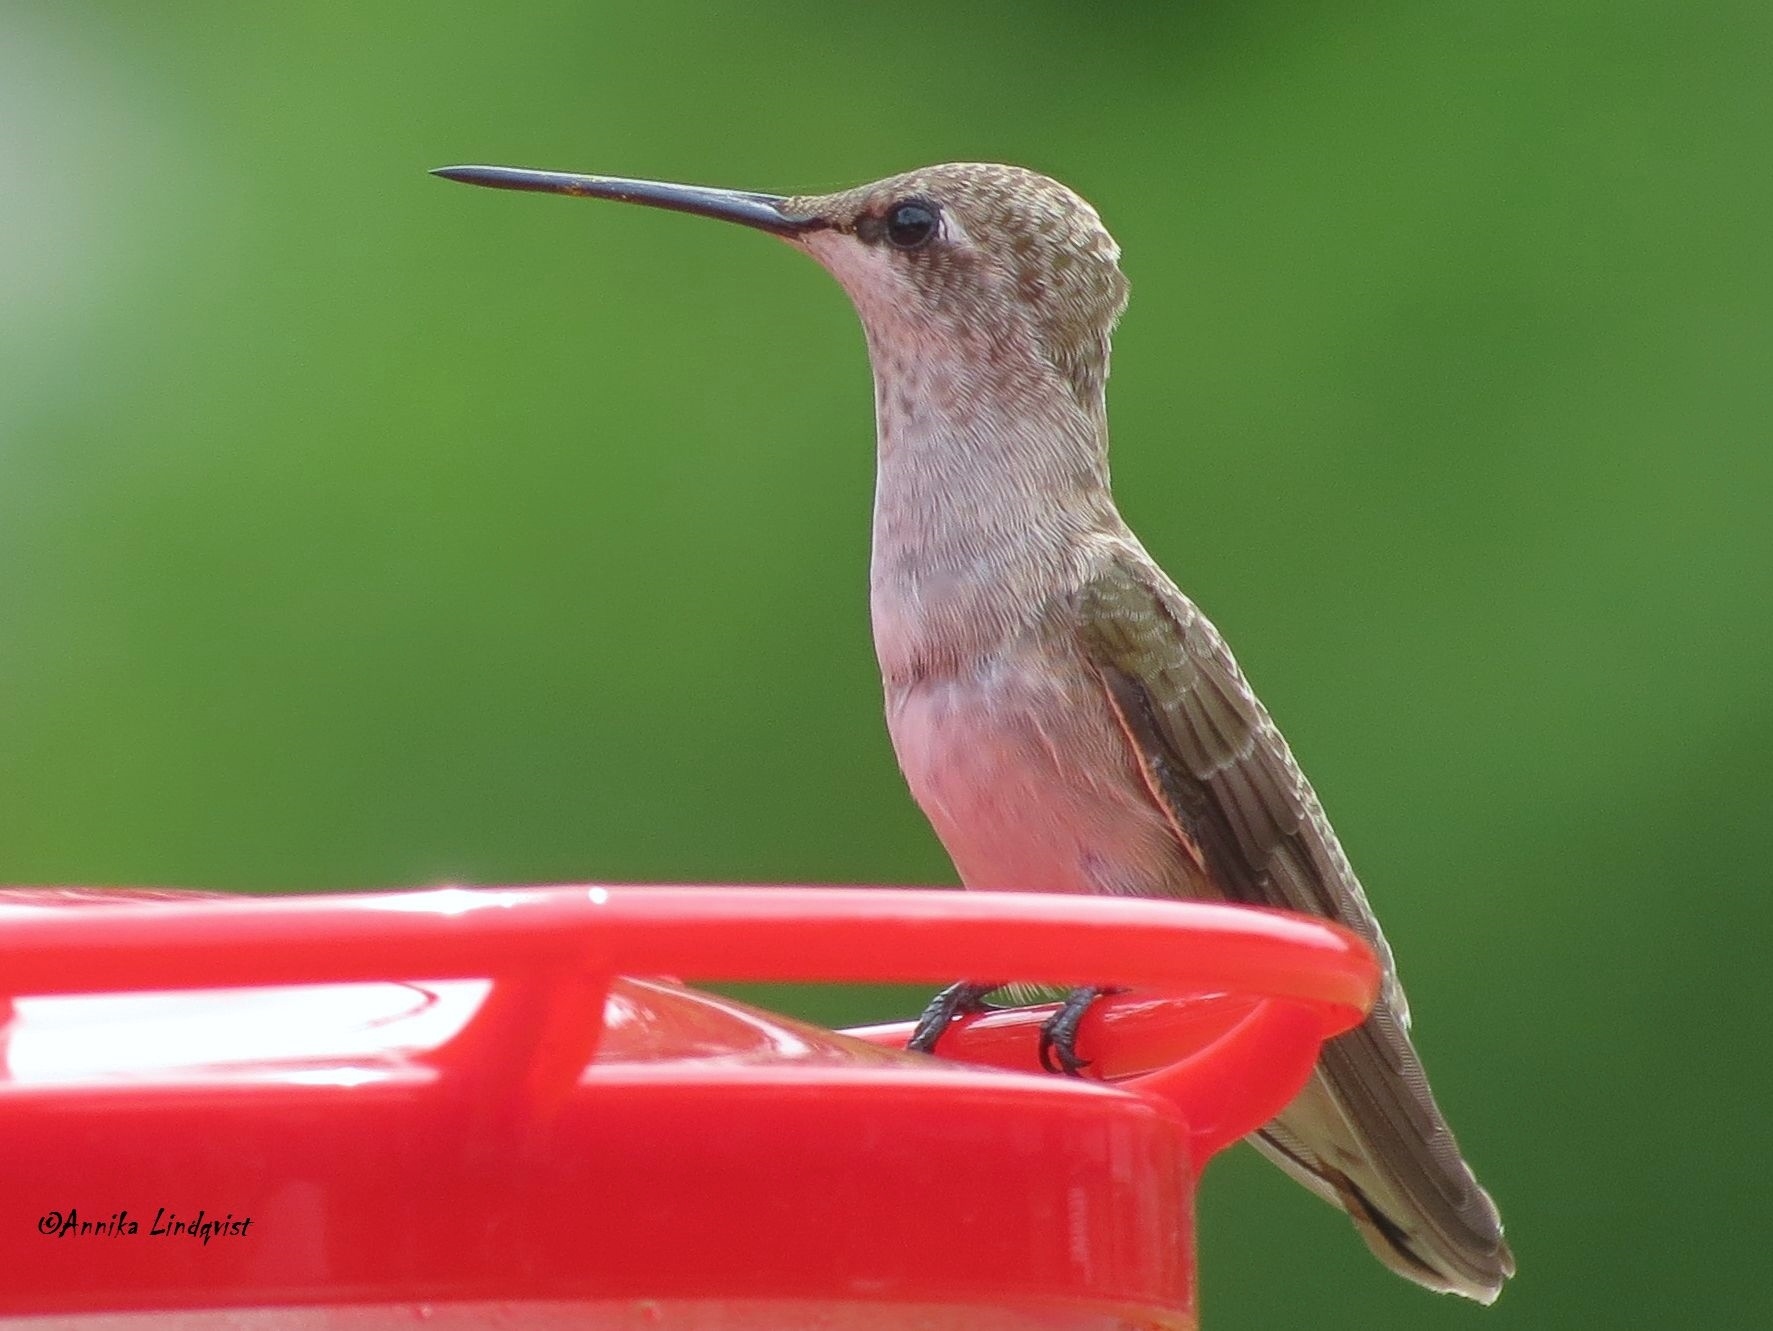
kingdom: Animalia
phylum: Chordata
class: Aves
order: Apodiformes
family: Trochilidae
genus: Archilochus
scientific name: Archilochus colubris
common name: Ruby-throated hummingbird
